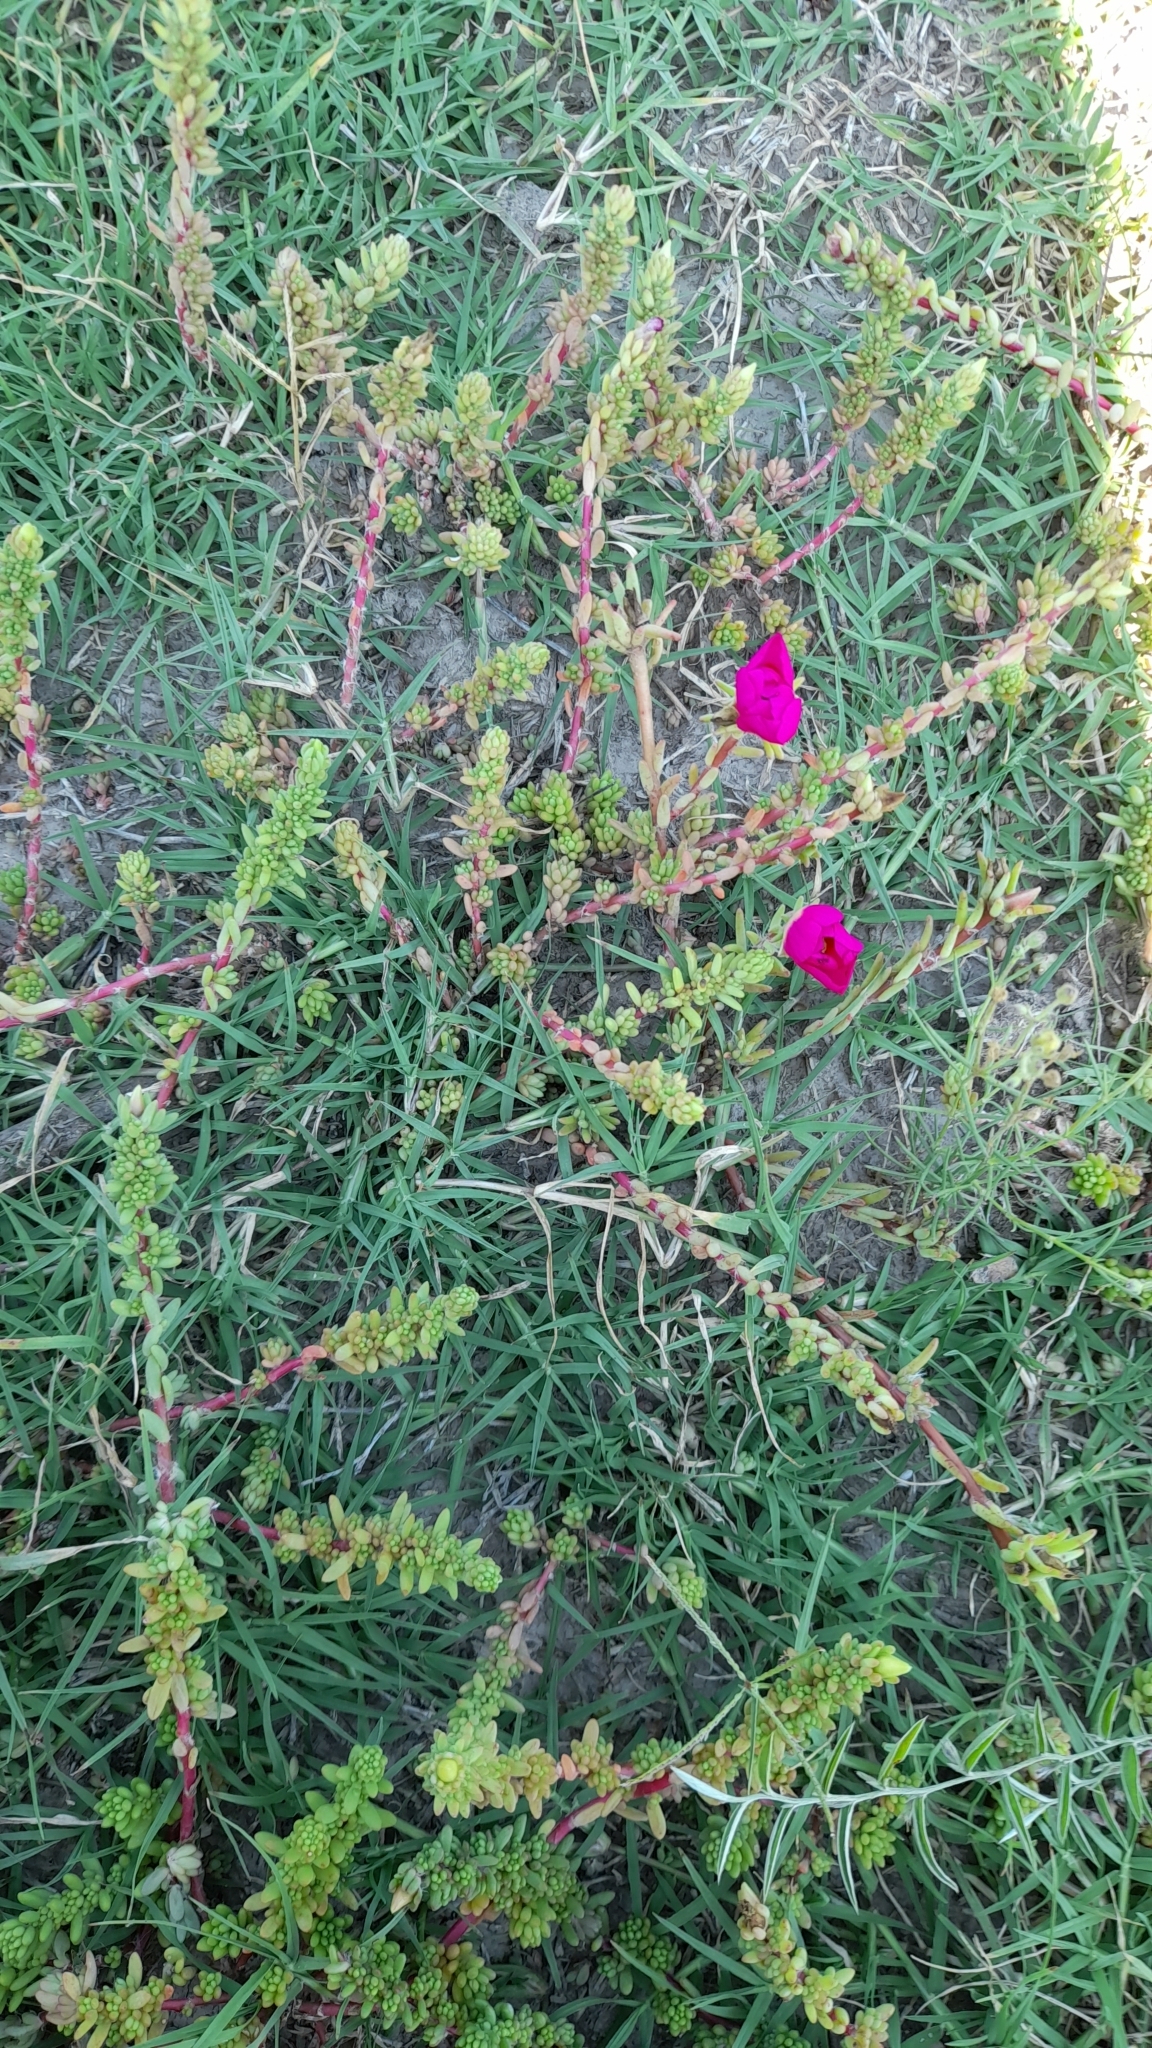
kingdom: Plantae
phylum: Tracheophyta
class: Magnoliopsida
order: Caryophyllales
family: Portulacaceae
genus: Portulaca
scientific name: Portulaca gilliesii
